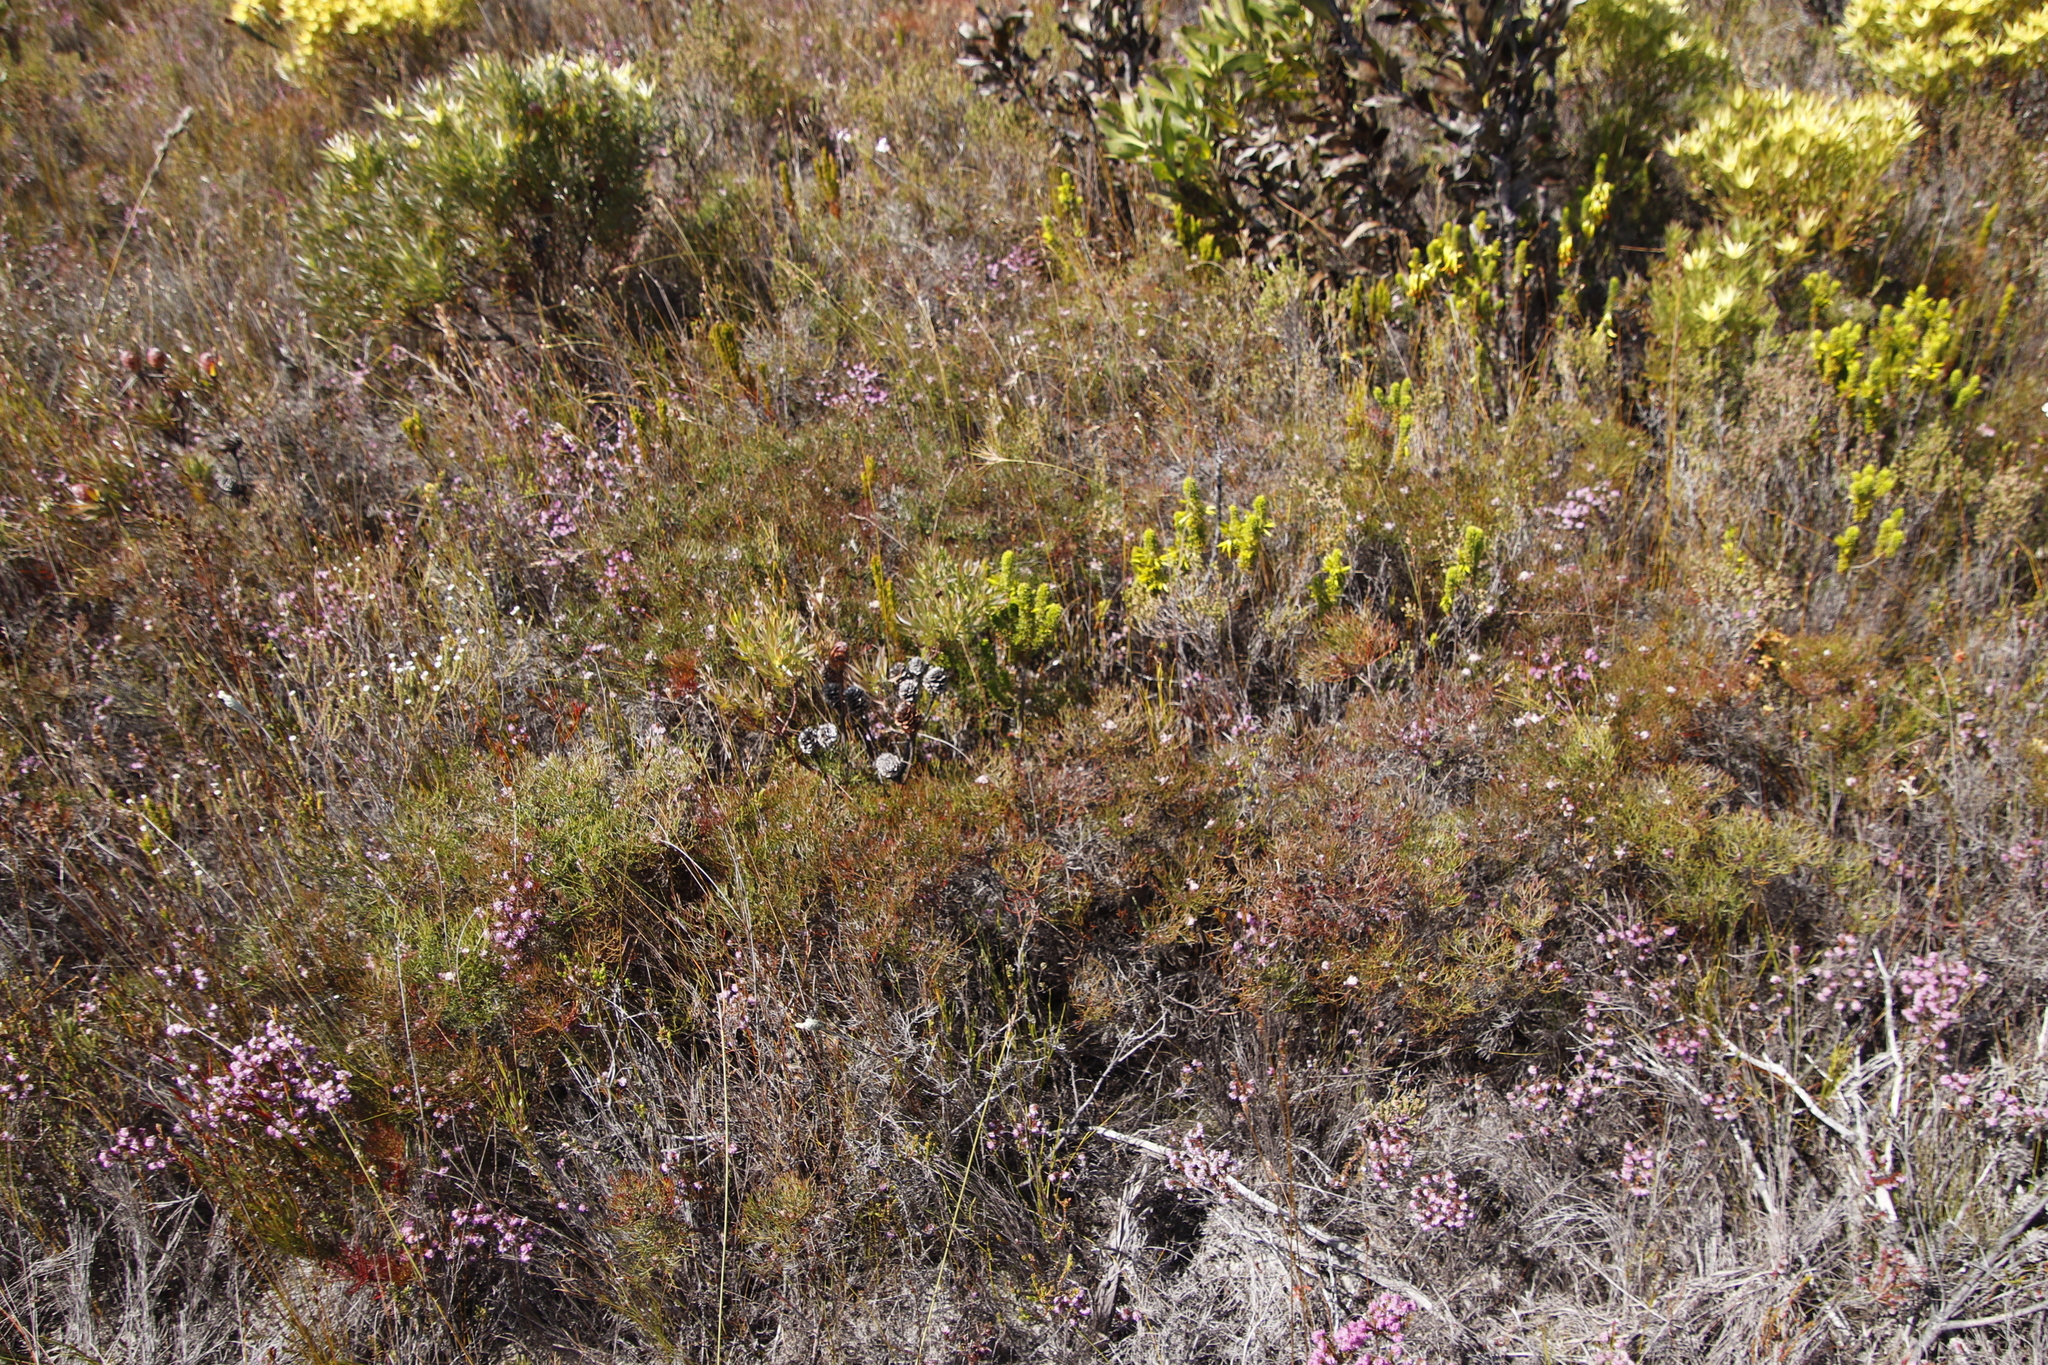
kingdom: Plantae
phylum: Tracheophyta
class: Magnoliopsida
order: Proteales
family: Proteaceae
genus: Serruria
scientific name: Serruria bolusii
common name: Agulhas spiderhead
